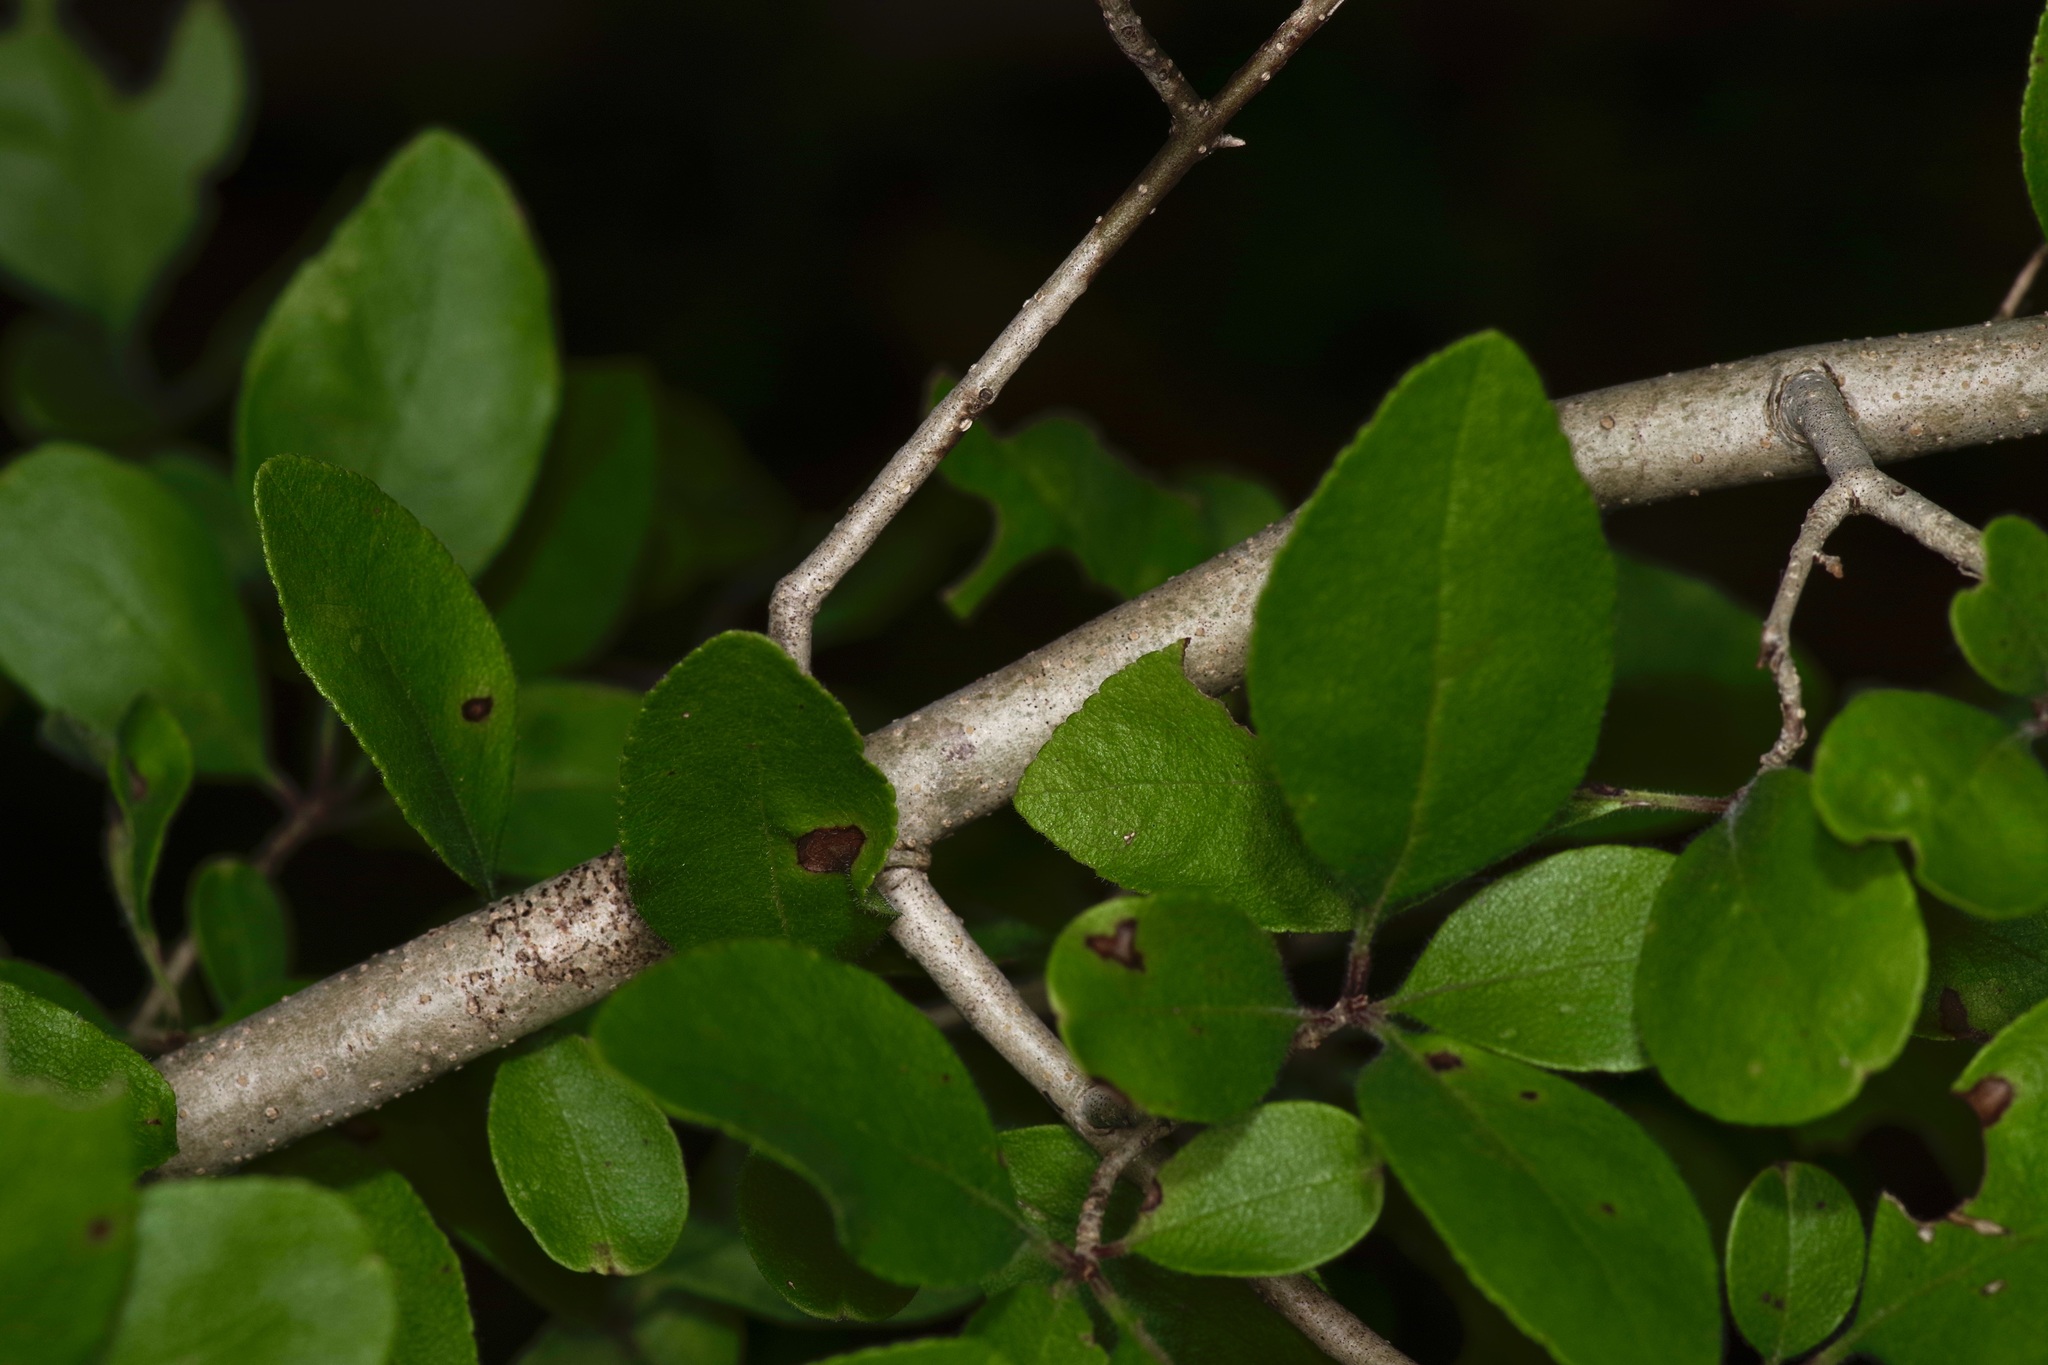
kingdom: Plantae
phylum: Tracheophyta
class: Magnoliopsida
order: Lamiales
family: Oleaceae
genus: Forestiera
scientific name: Forestiera pubescens
